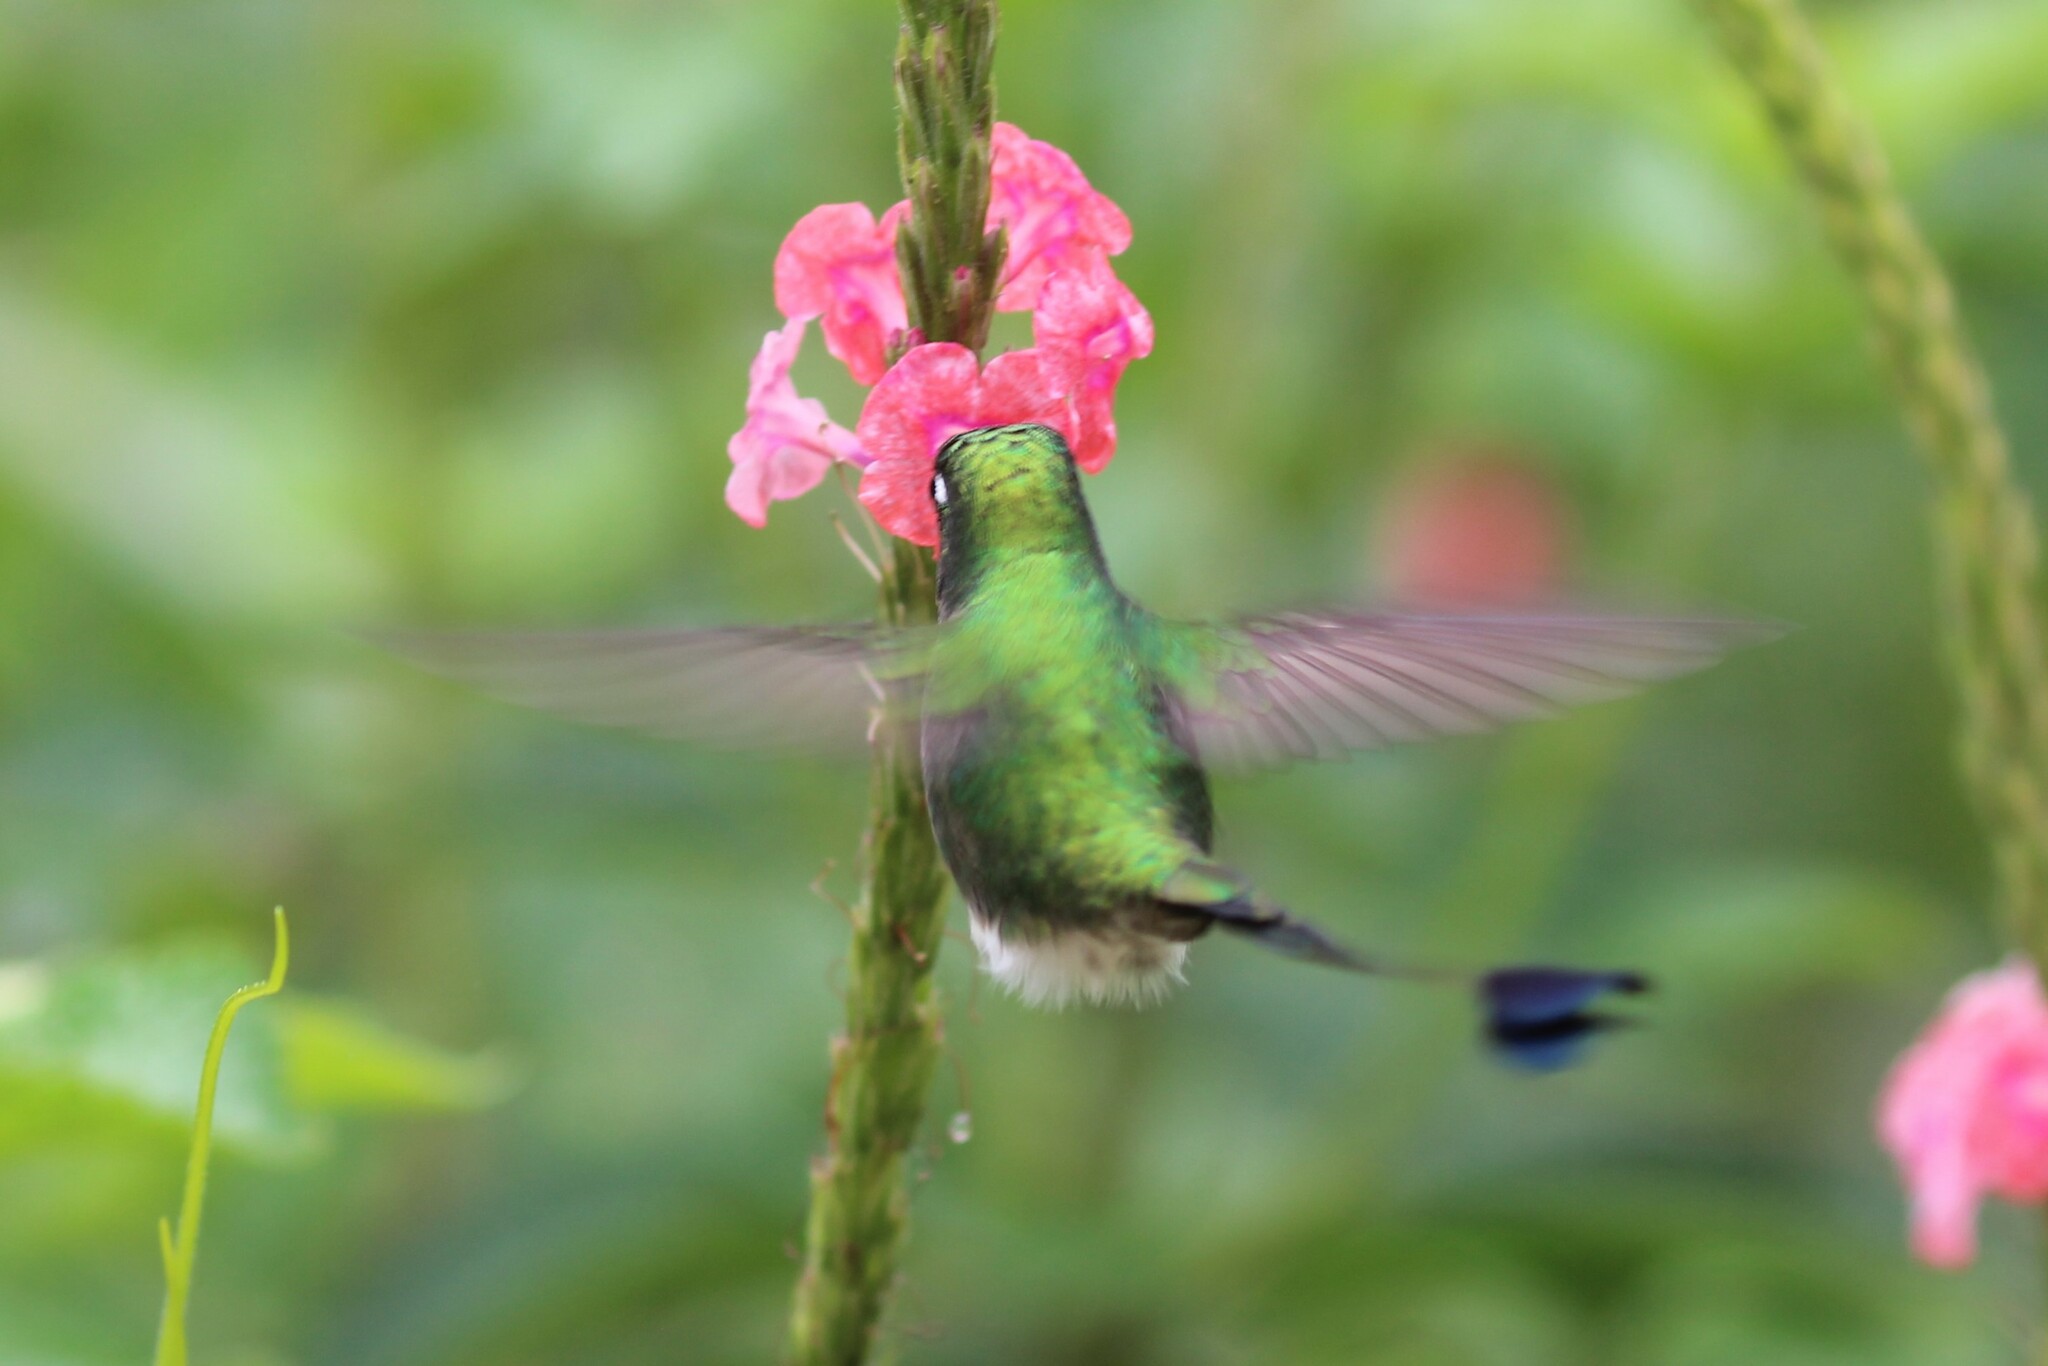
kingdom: Animalia
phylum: Chordata
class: Aves
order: Apodiformes
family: Trochilidae
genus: Ocreatus
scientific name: Ocreatus underwoodii
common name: Booted racket-tail
